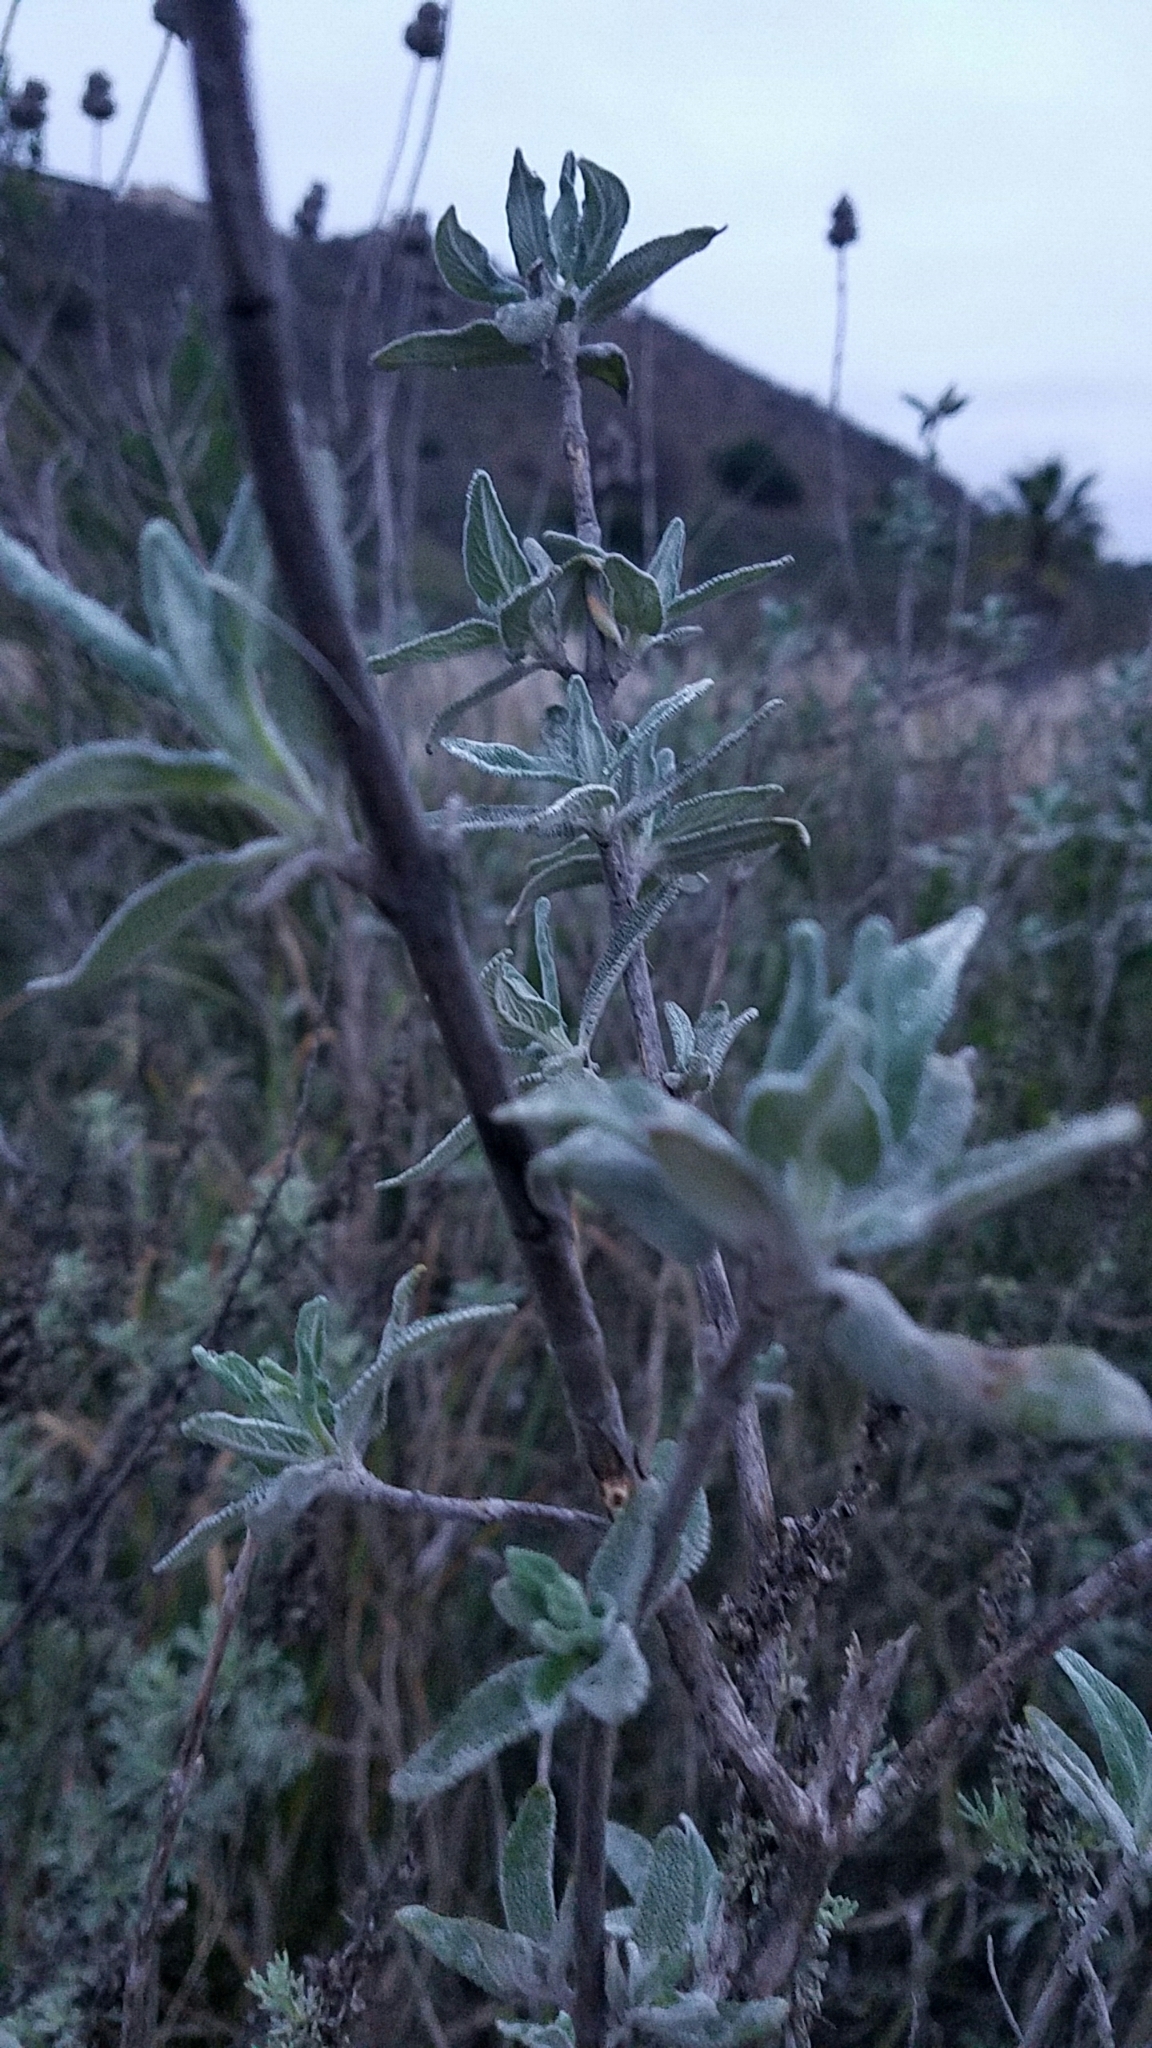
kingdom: Plantae
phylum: Tracheophyta
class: Magnoliopsida
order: Lamiales
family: Lamiaceae
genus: Salvia
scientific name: Salvia leucophylla
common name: Purple sage
